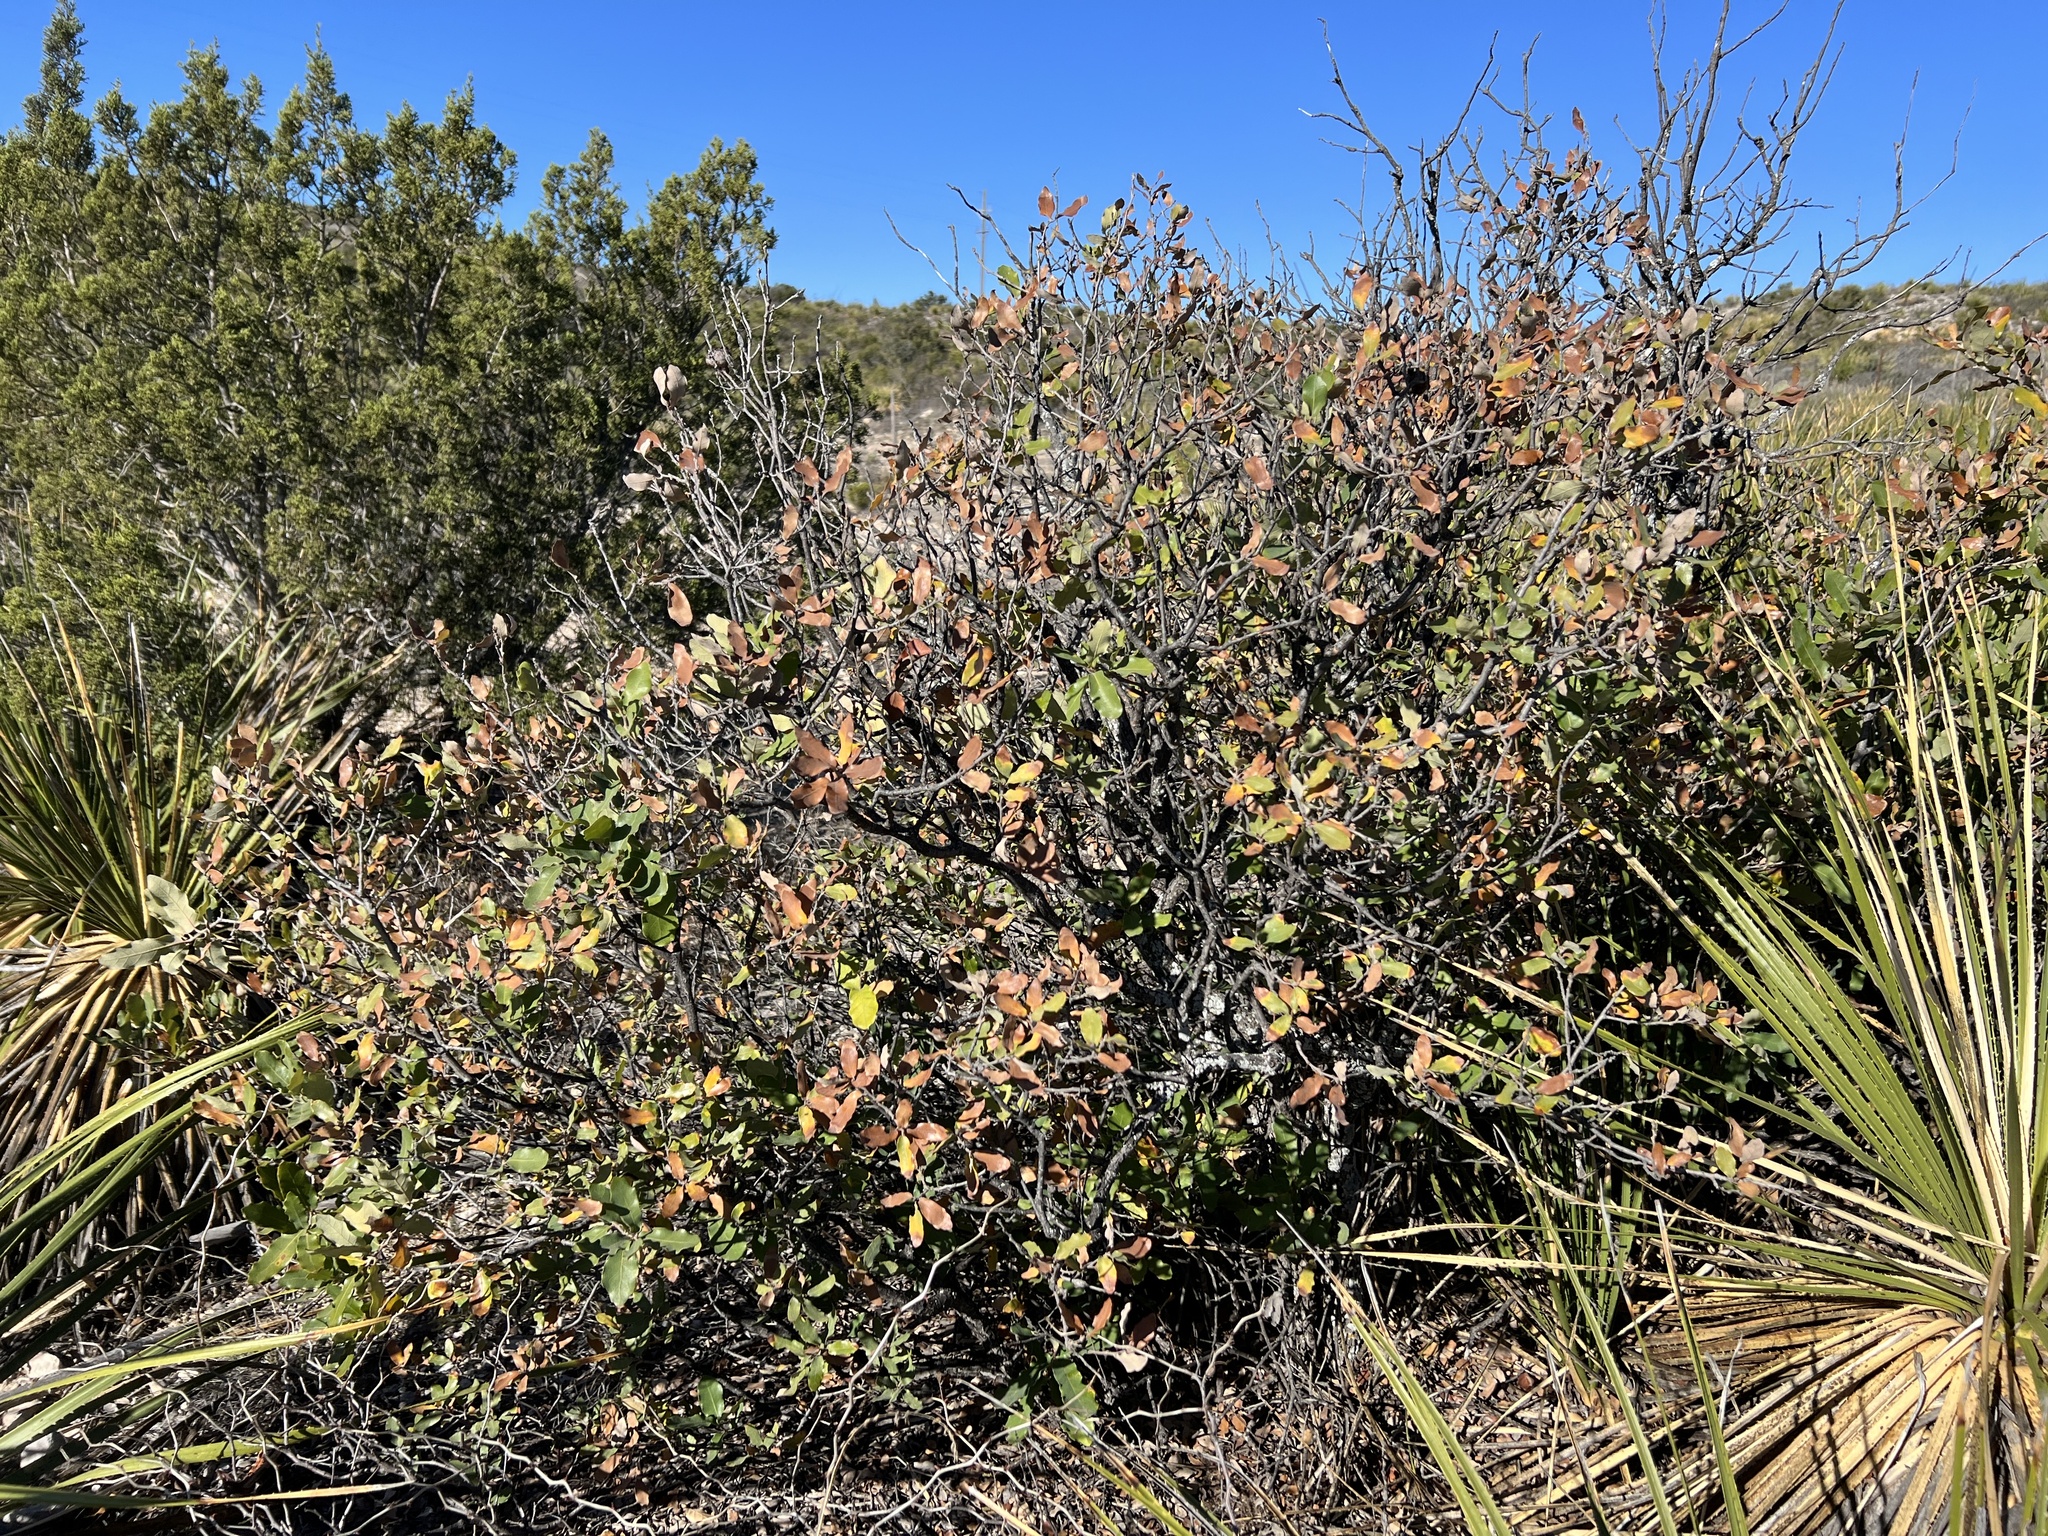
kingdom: Plantae
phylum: Tracheophyta
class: Magnoliopsida
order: Fagales
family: Fagaceae
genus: Quercus
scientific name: Quercus vaseyana
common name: Sandpaper oak
